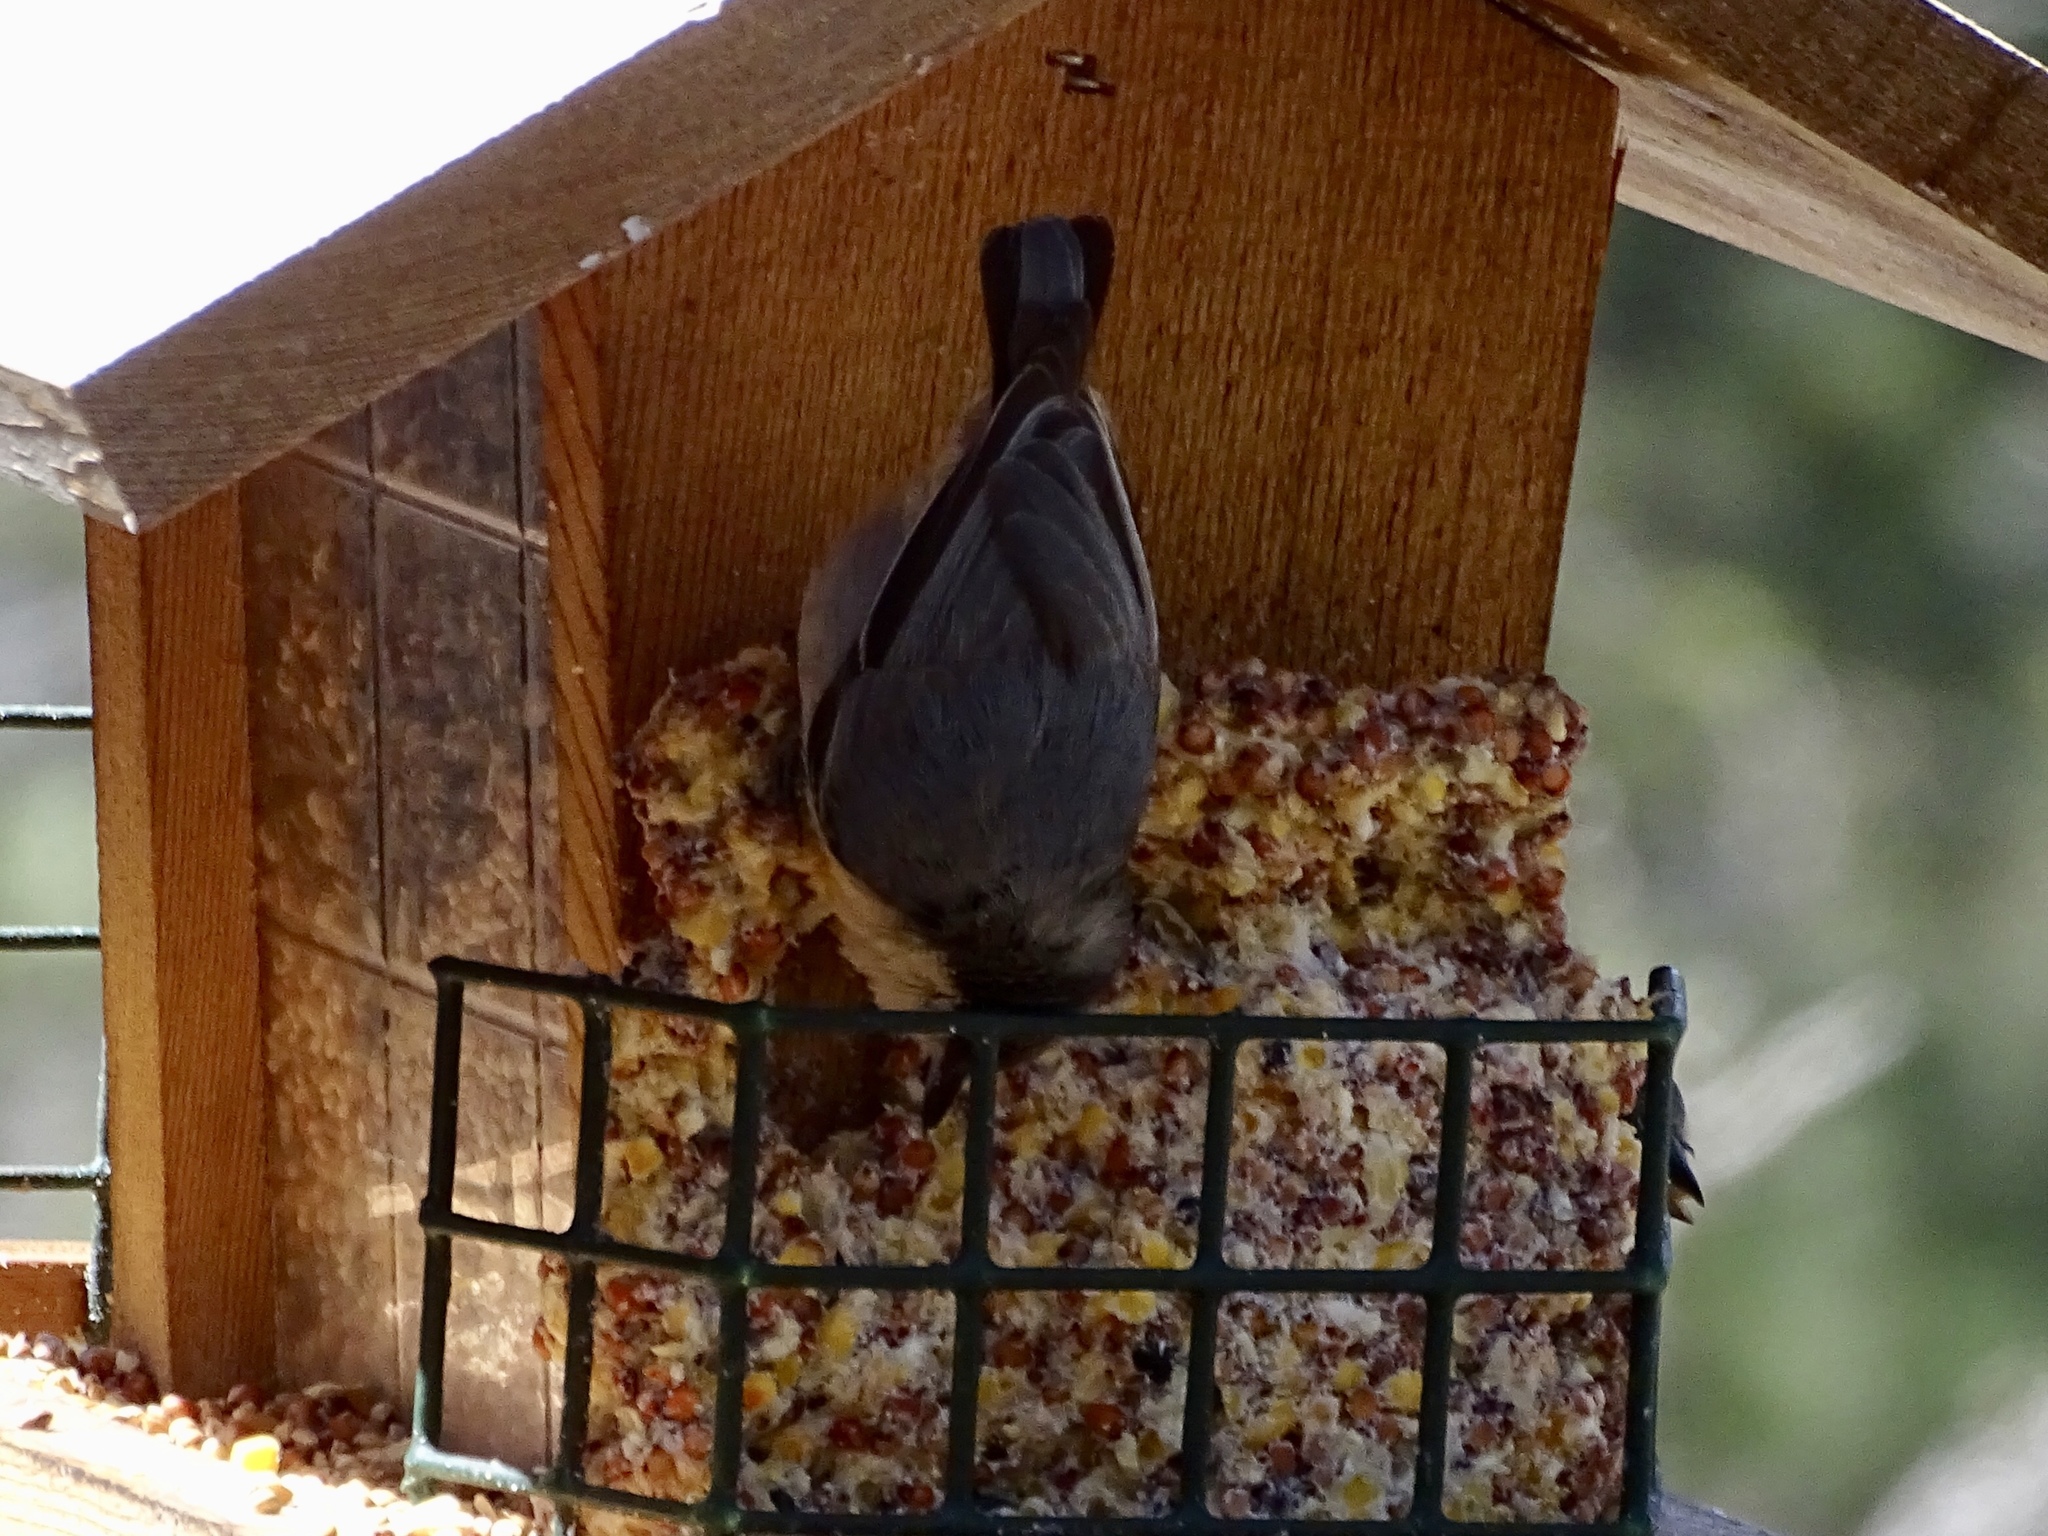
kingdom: Animalia
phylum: Chordata
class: Aves
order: Passeriformes
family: Sittidae
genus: Sitta
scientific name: Sitta pygmaea
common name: Pygmy nuthatch
